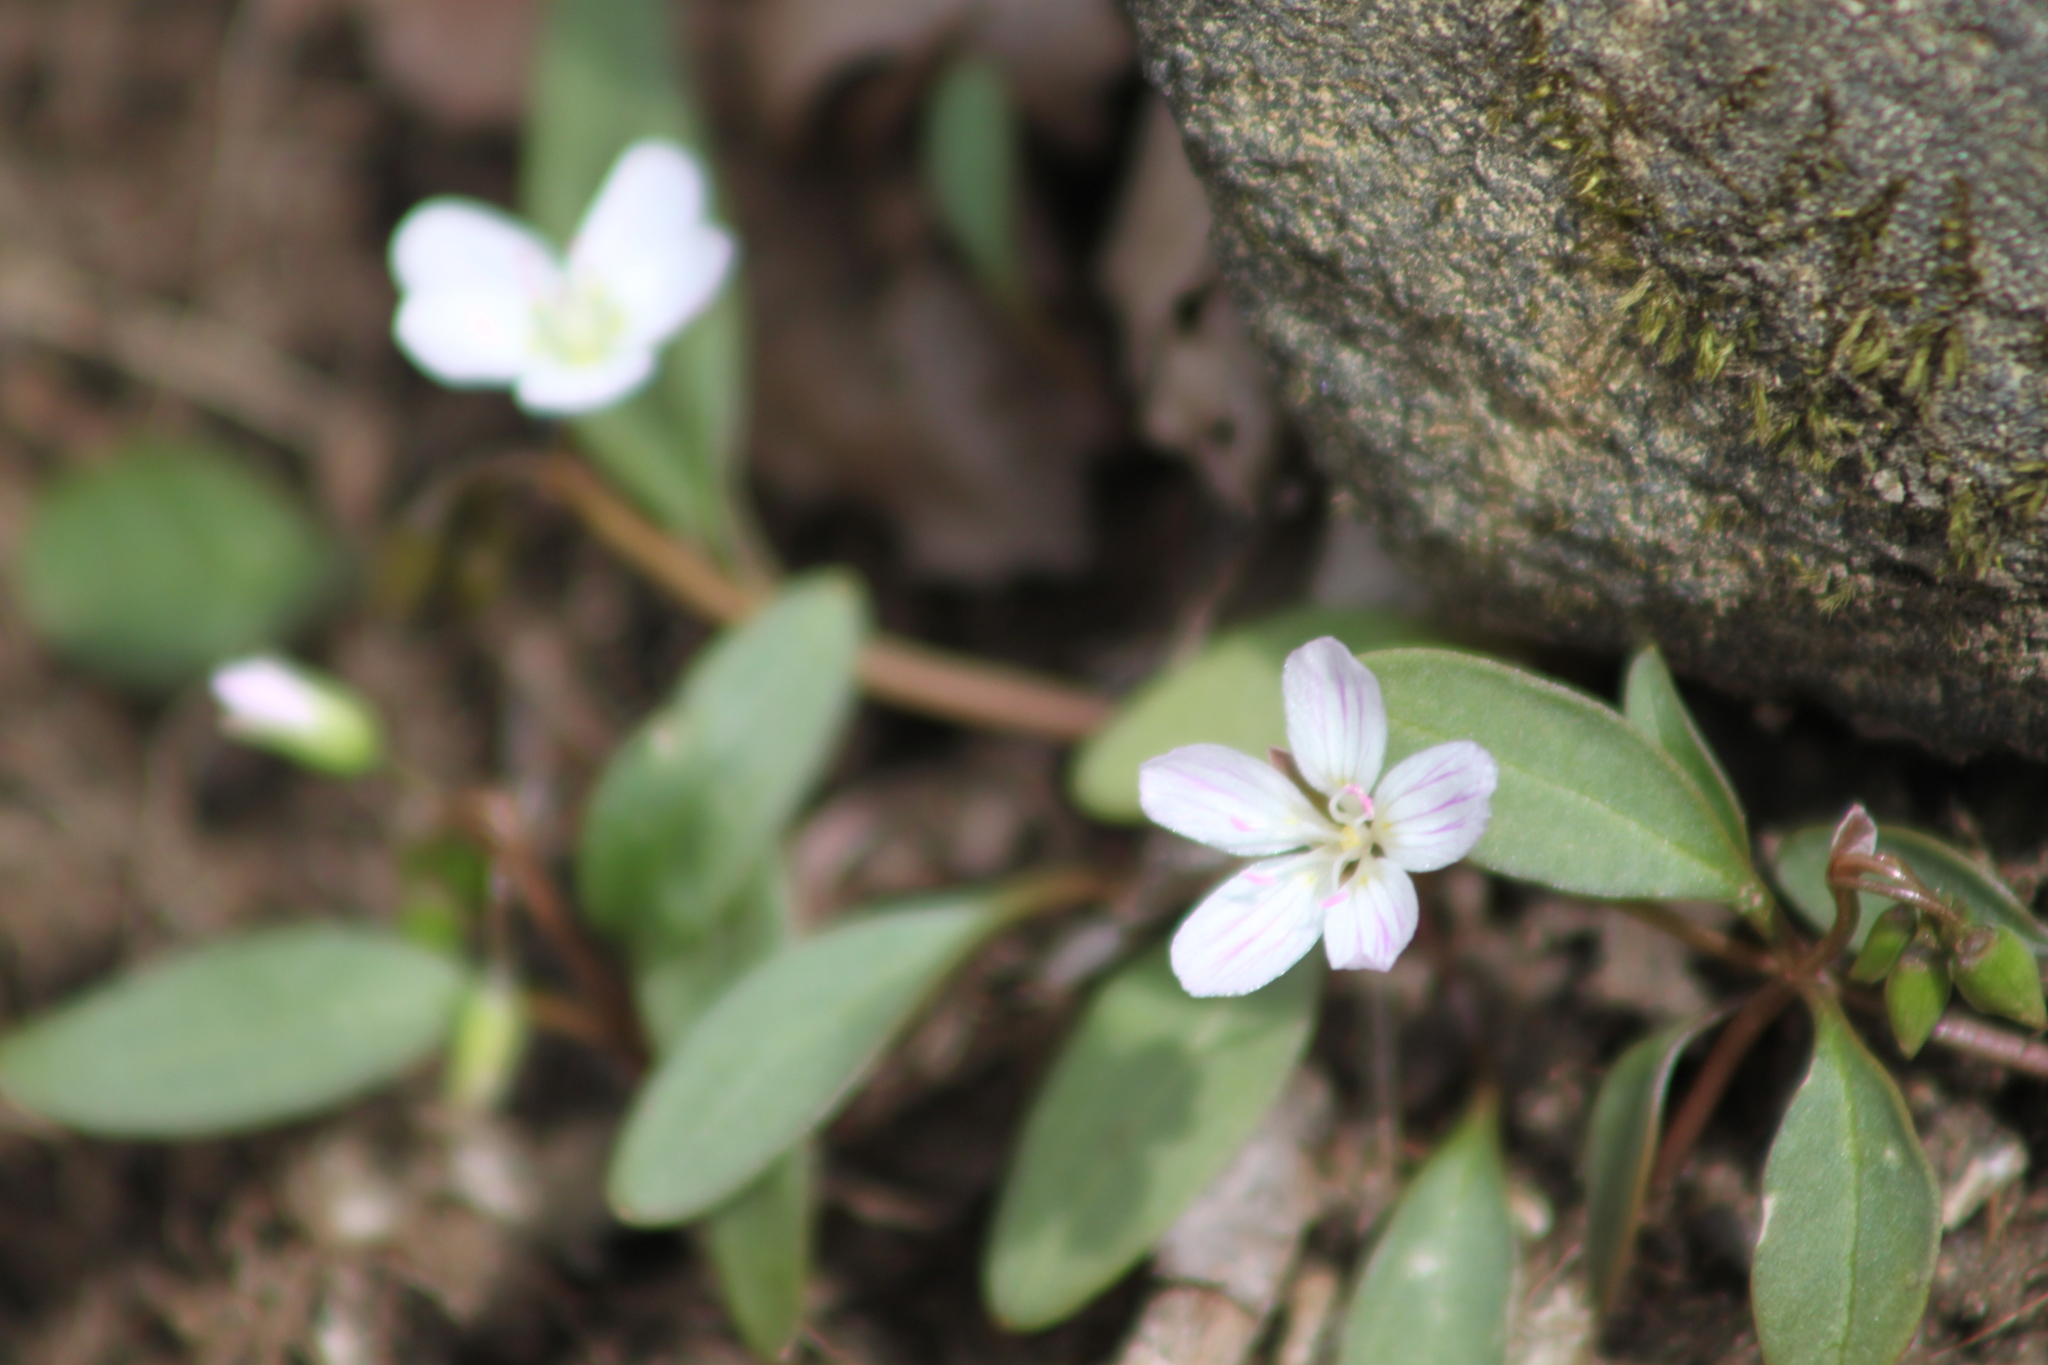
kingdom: Plantae
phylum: Tracheophyta
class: Magnoliopsida
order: Caryophyllales
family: Montiaceae
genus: Claytonia
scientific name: Claytonia caroliniana
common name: Carolina spring beauty
